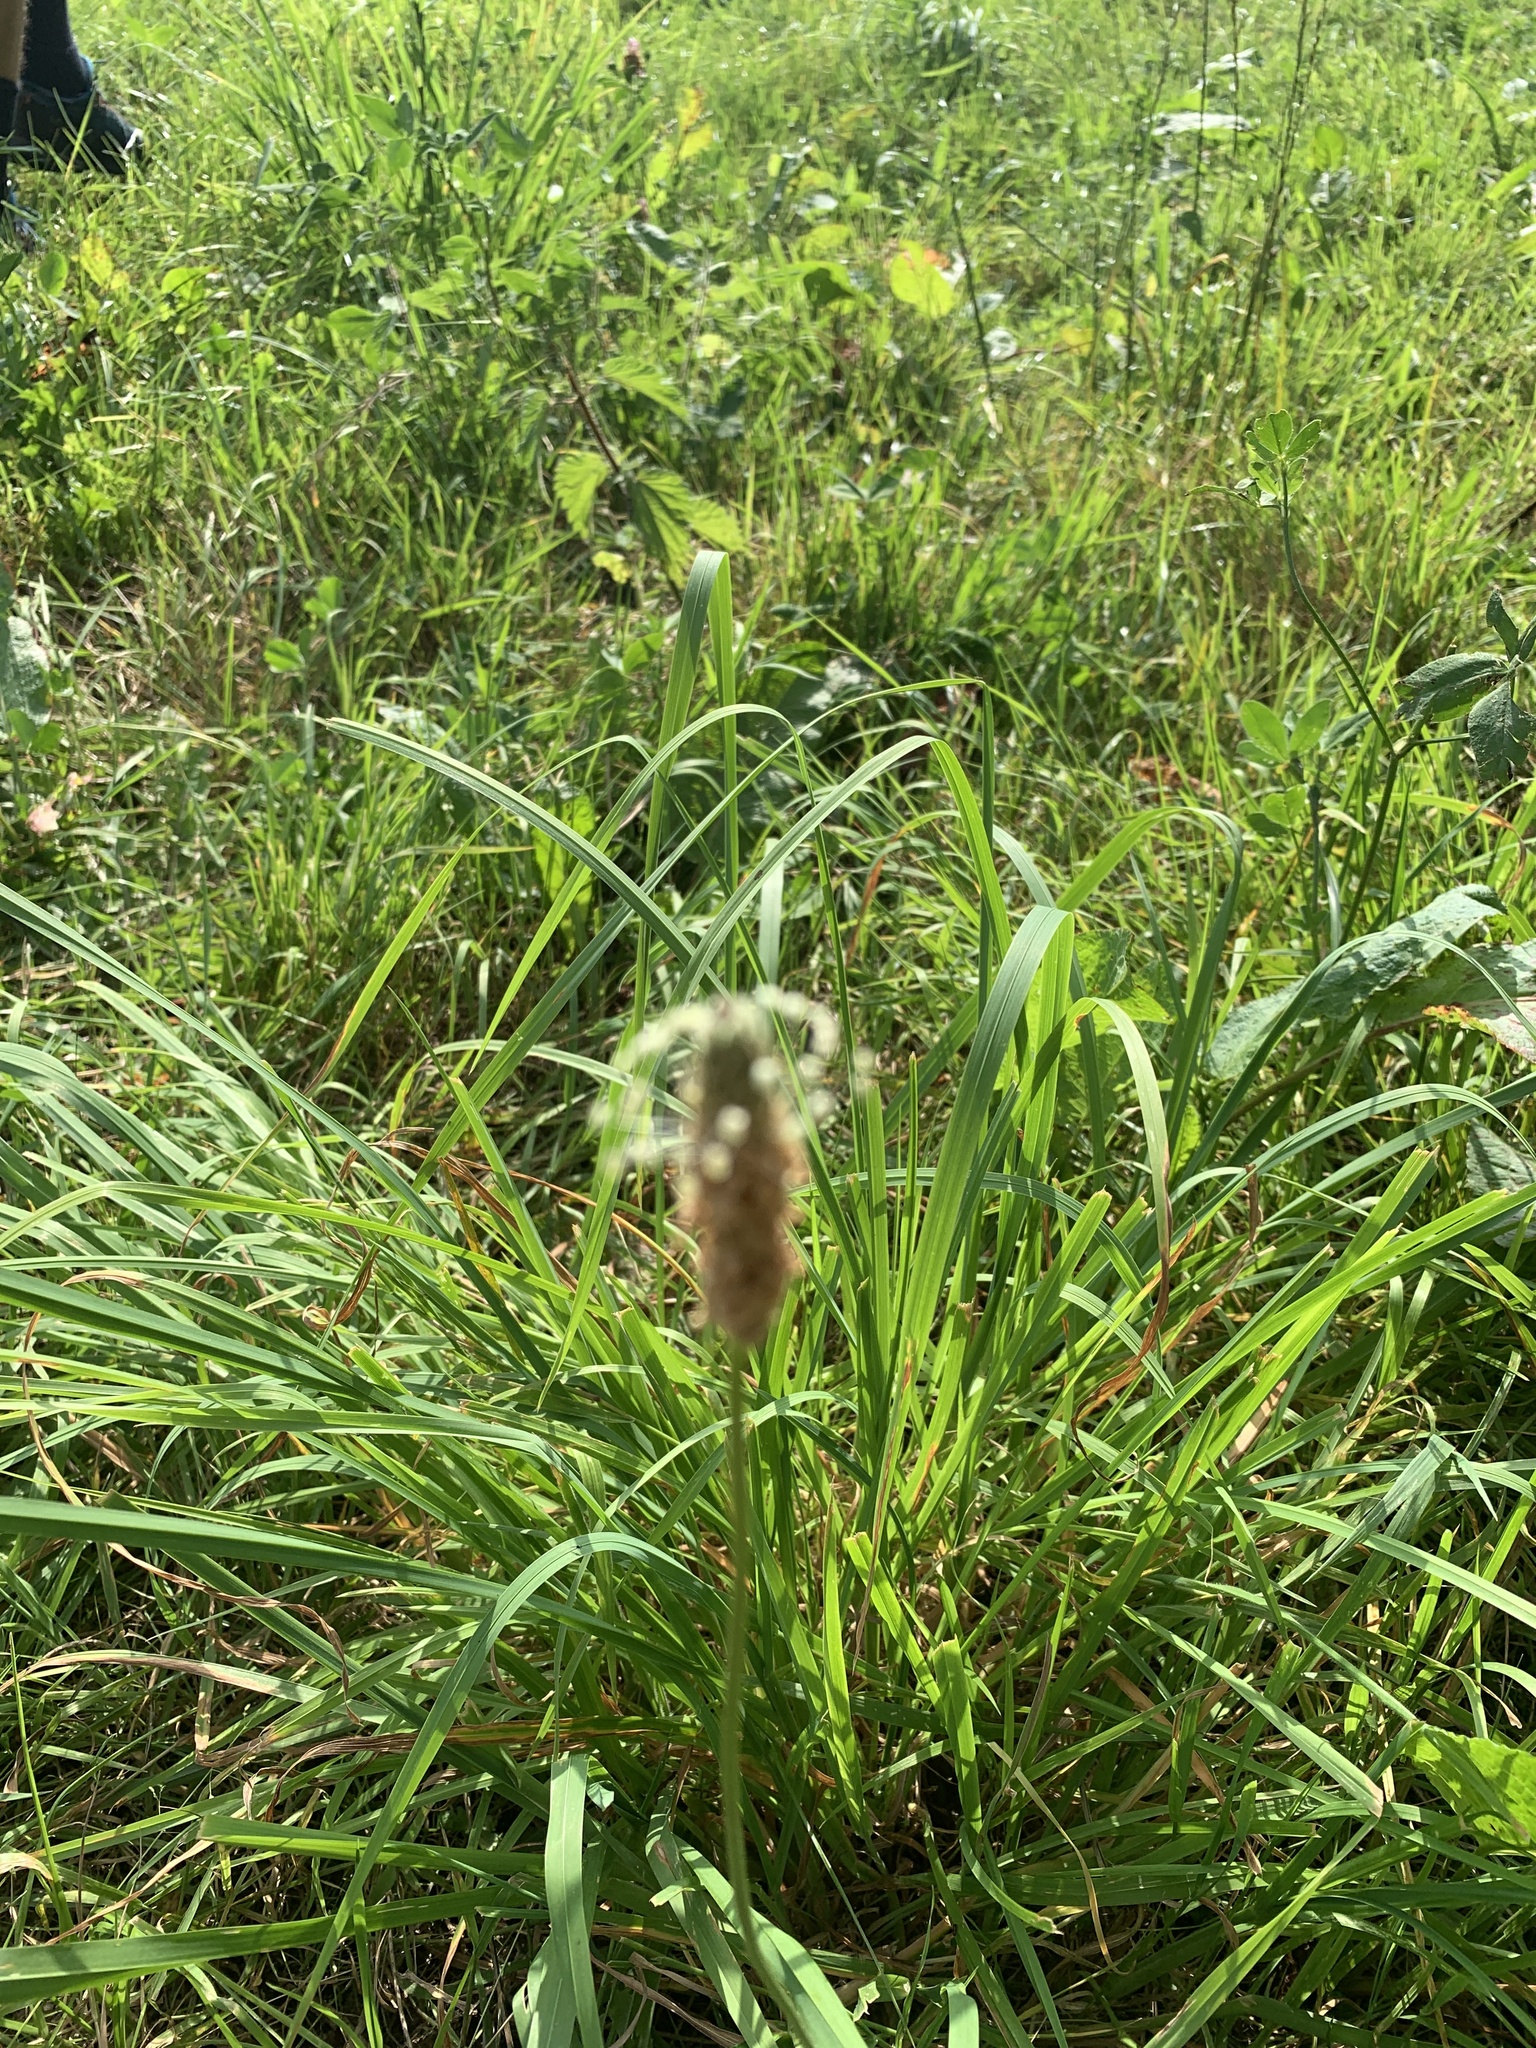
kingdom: Plantae
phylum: Tracheophyta
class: Magnoliopsida
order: Lamiales
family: Plantaginaceae
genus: Plantago
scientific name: Plantago lanceolata
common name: Ribwort plantain
